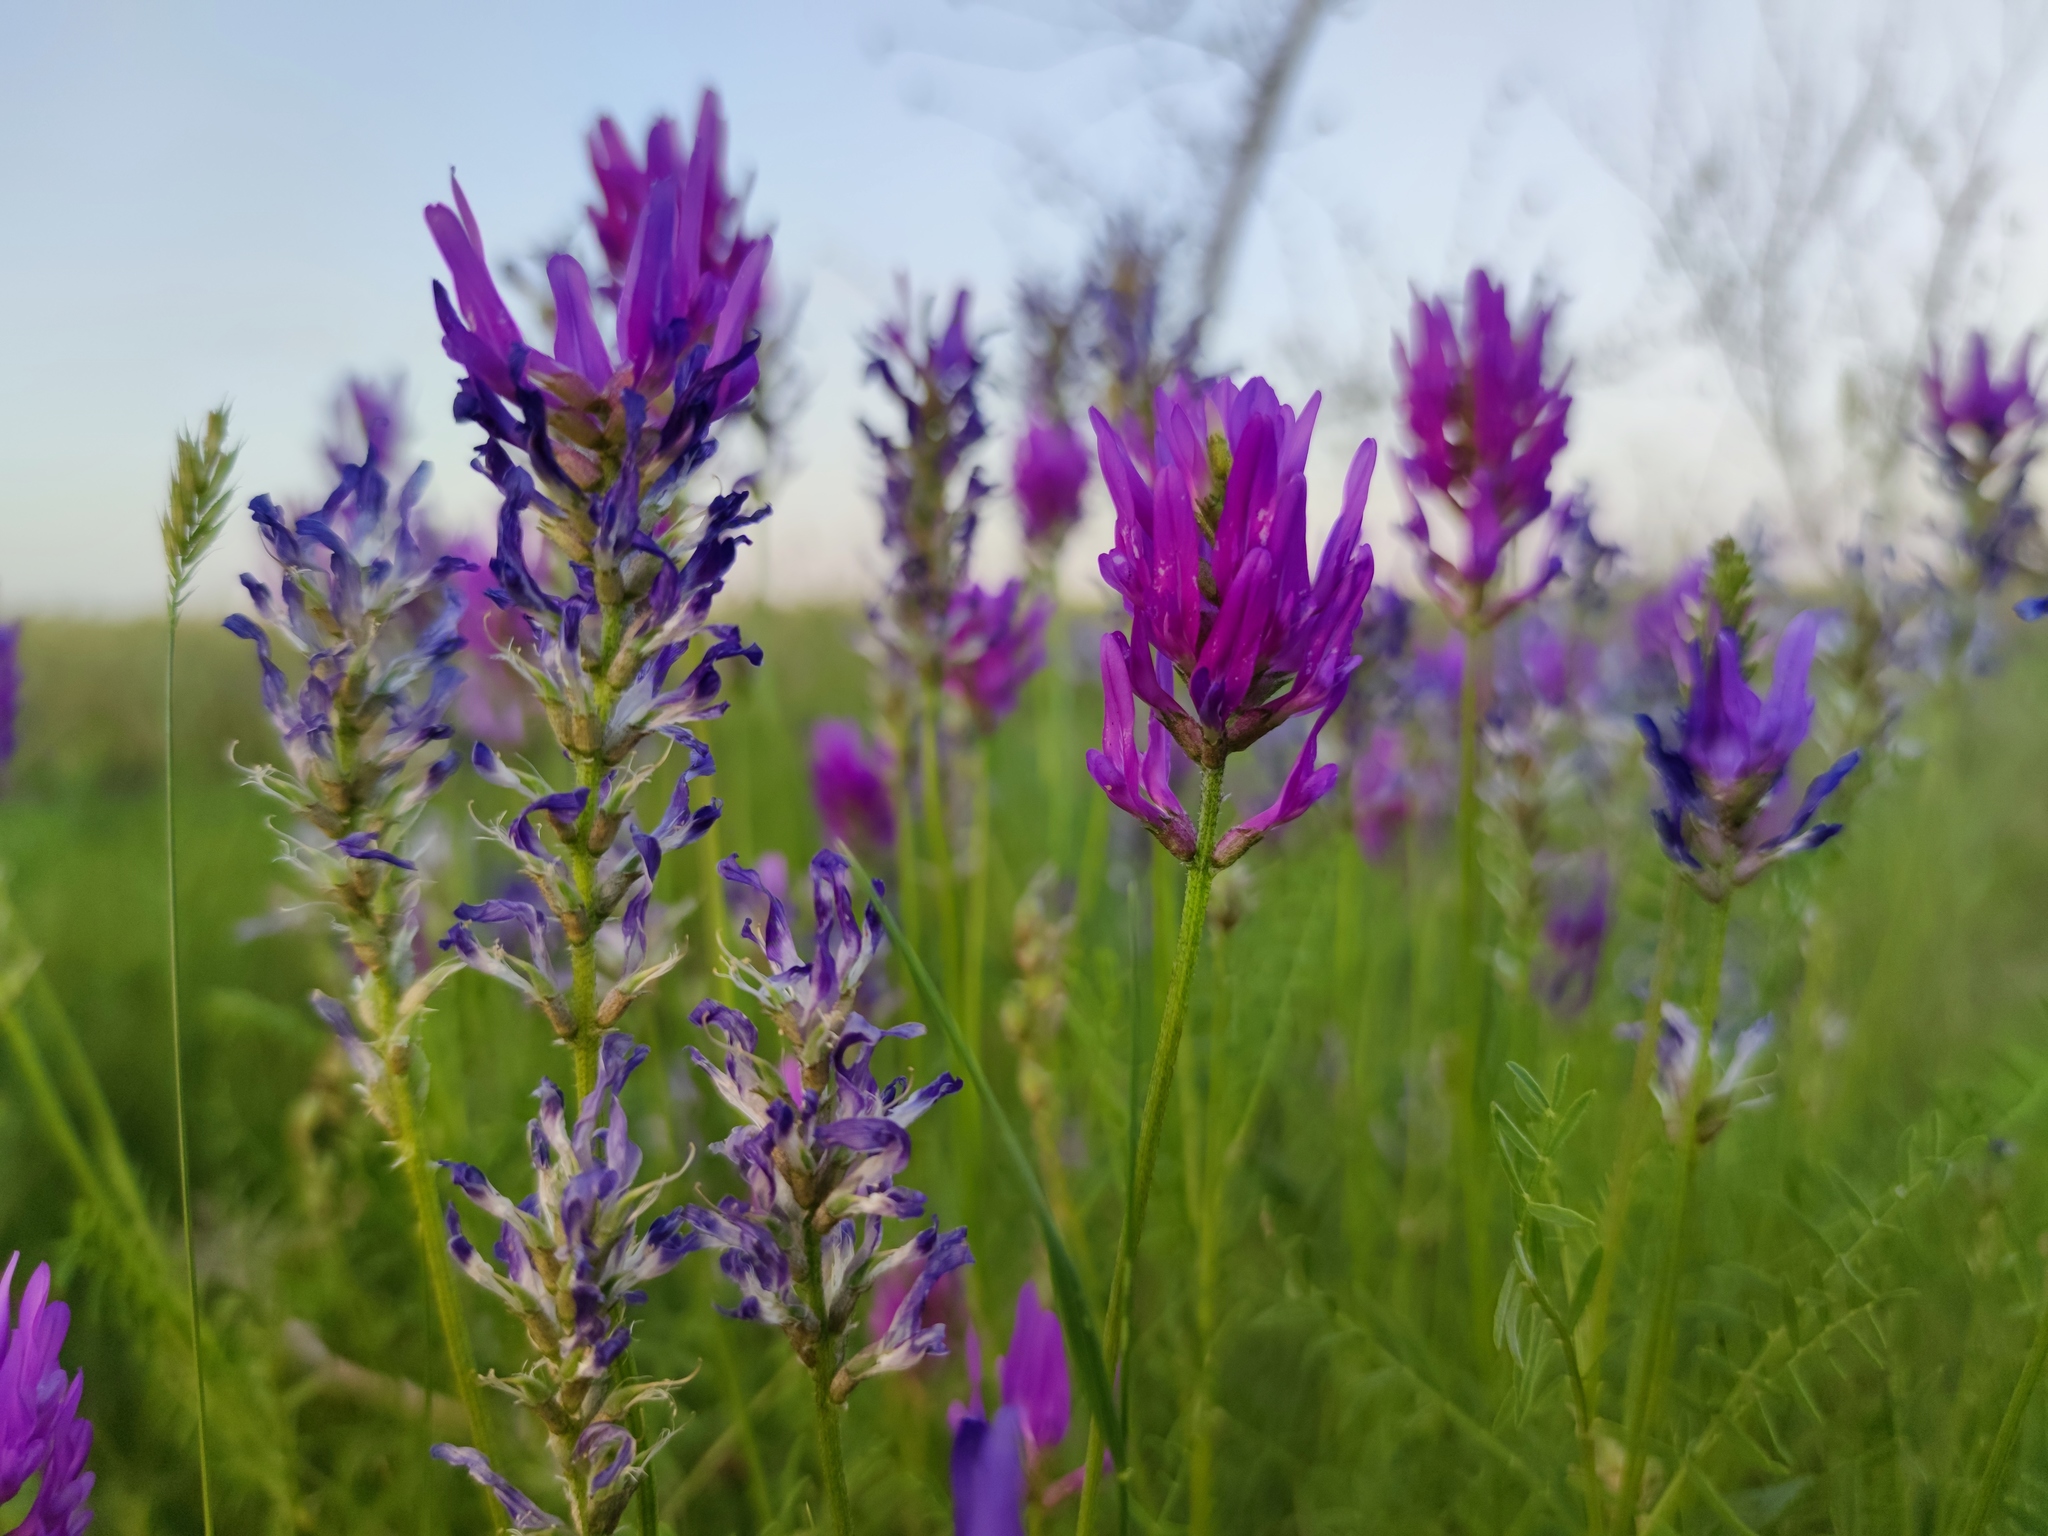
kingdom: Plantae
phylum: Tracheophyta
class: Magnoliopsida
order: Fabales
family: Fabaceae
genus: Astragalus
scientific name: Astragalus onobrychis
